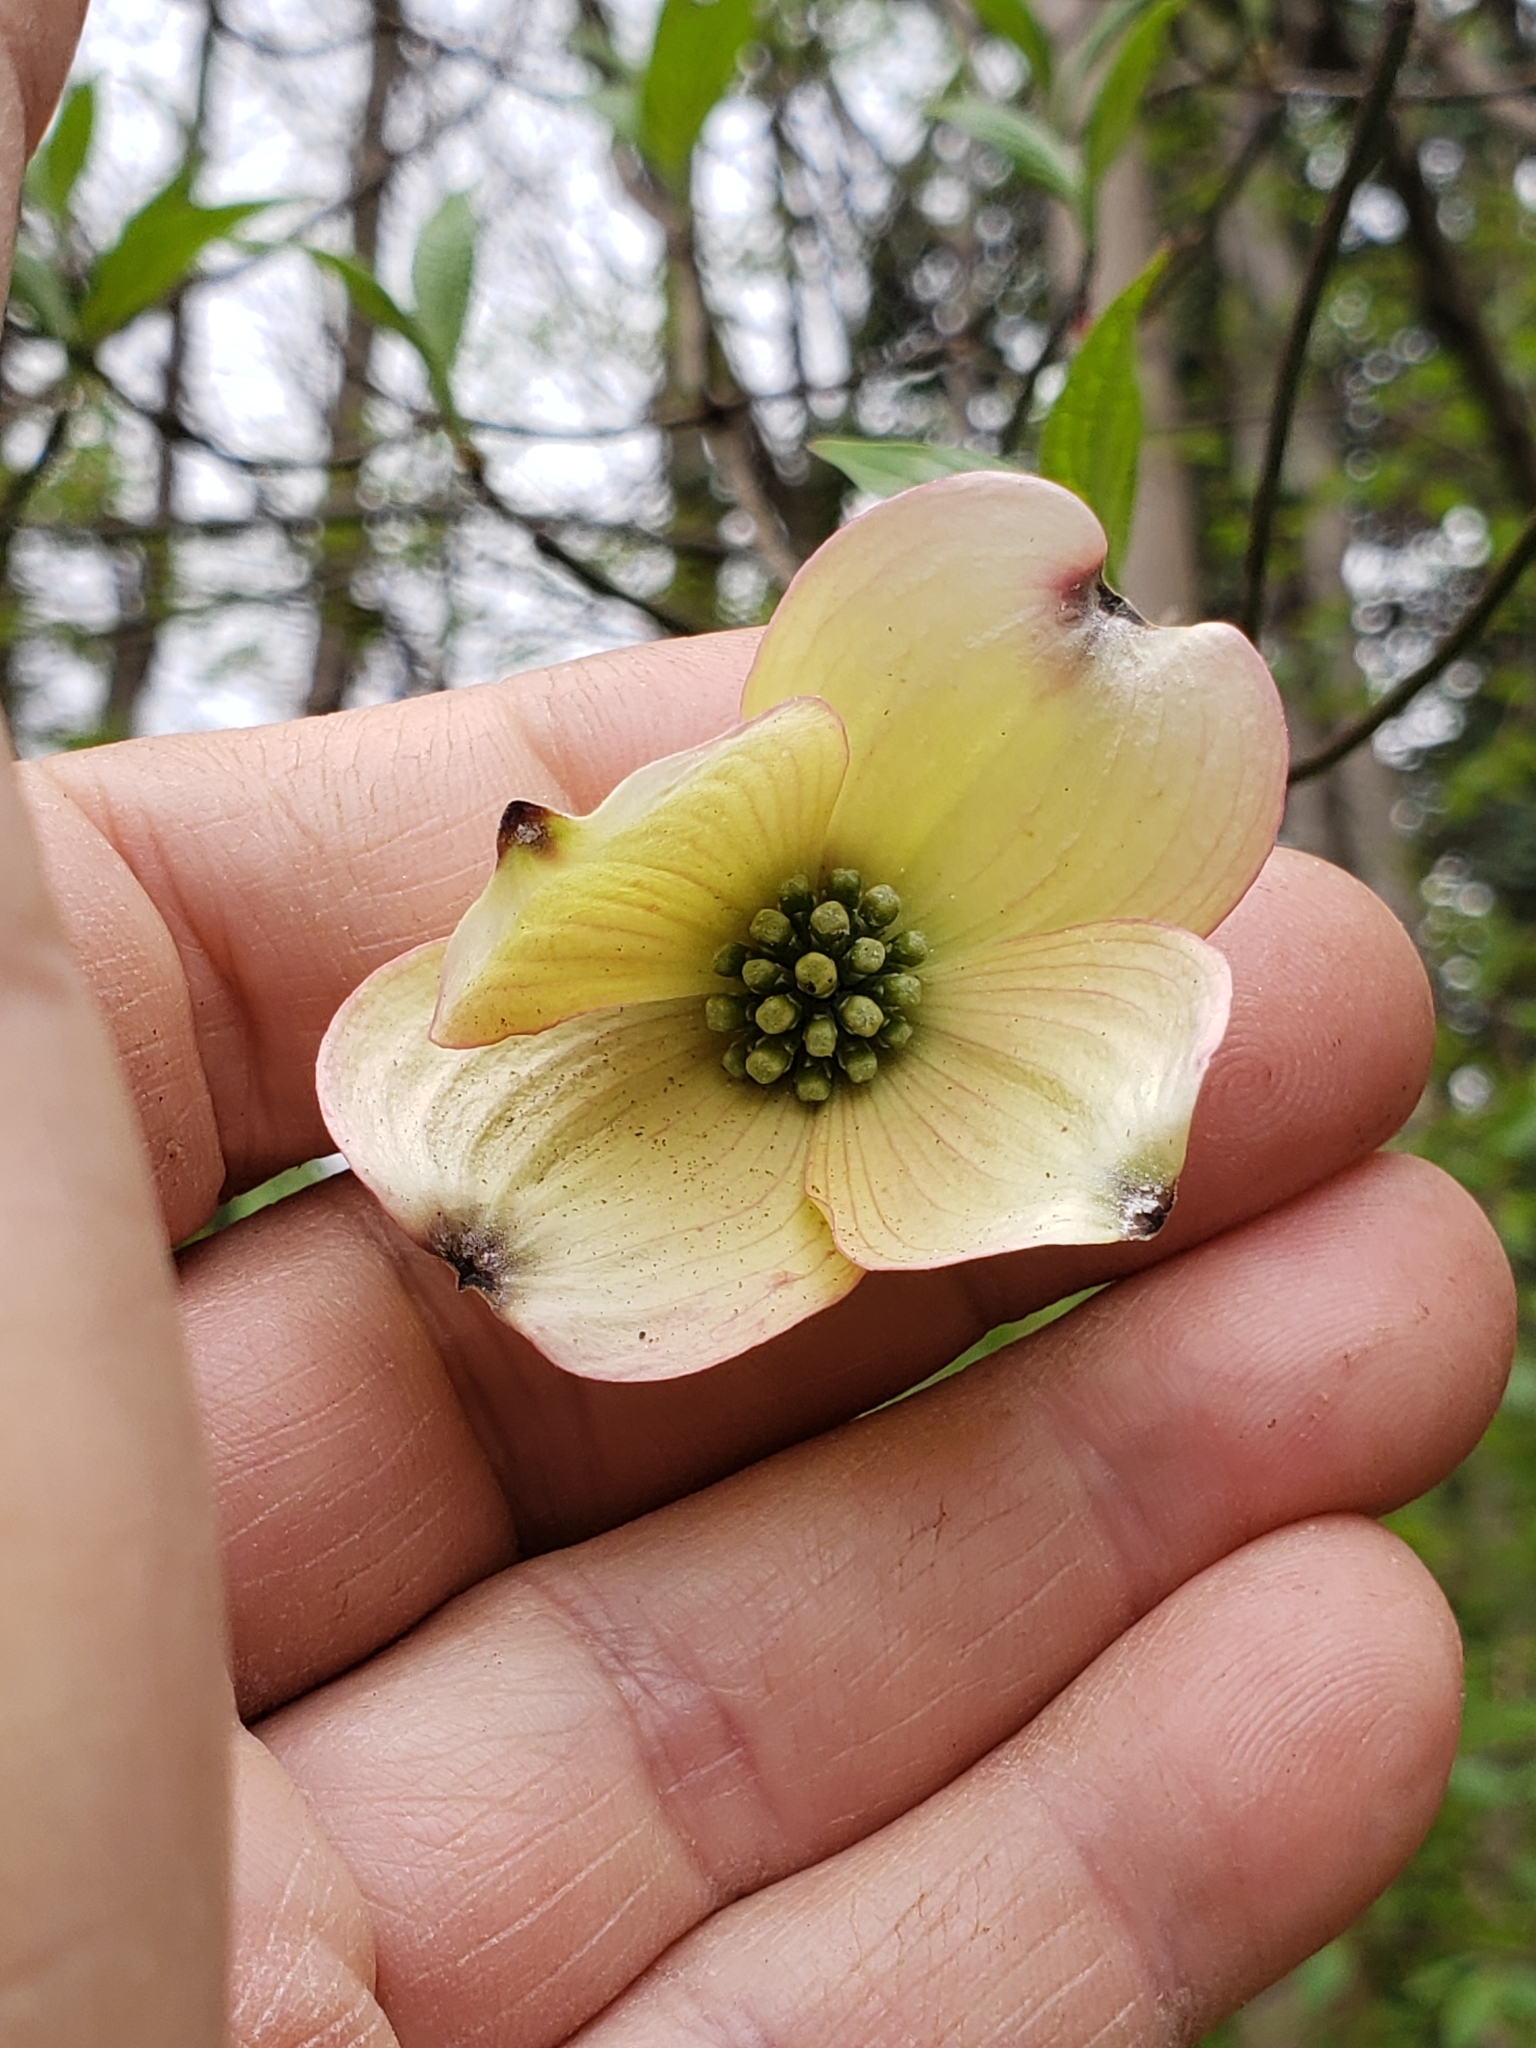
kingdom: Plantae
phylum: Tracheophyta
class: Magnoliopsida
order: Cornales
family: Cornaceae
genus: Cornus
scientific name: Cornus florida
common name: Flowering dogwood
